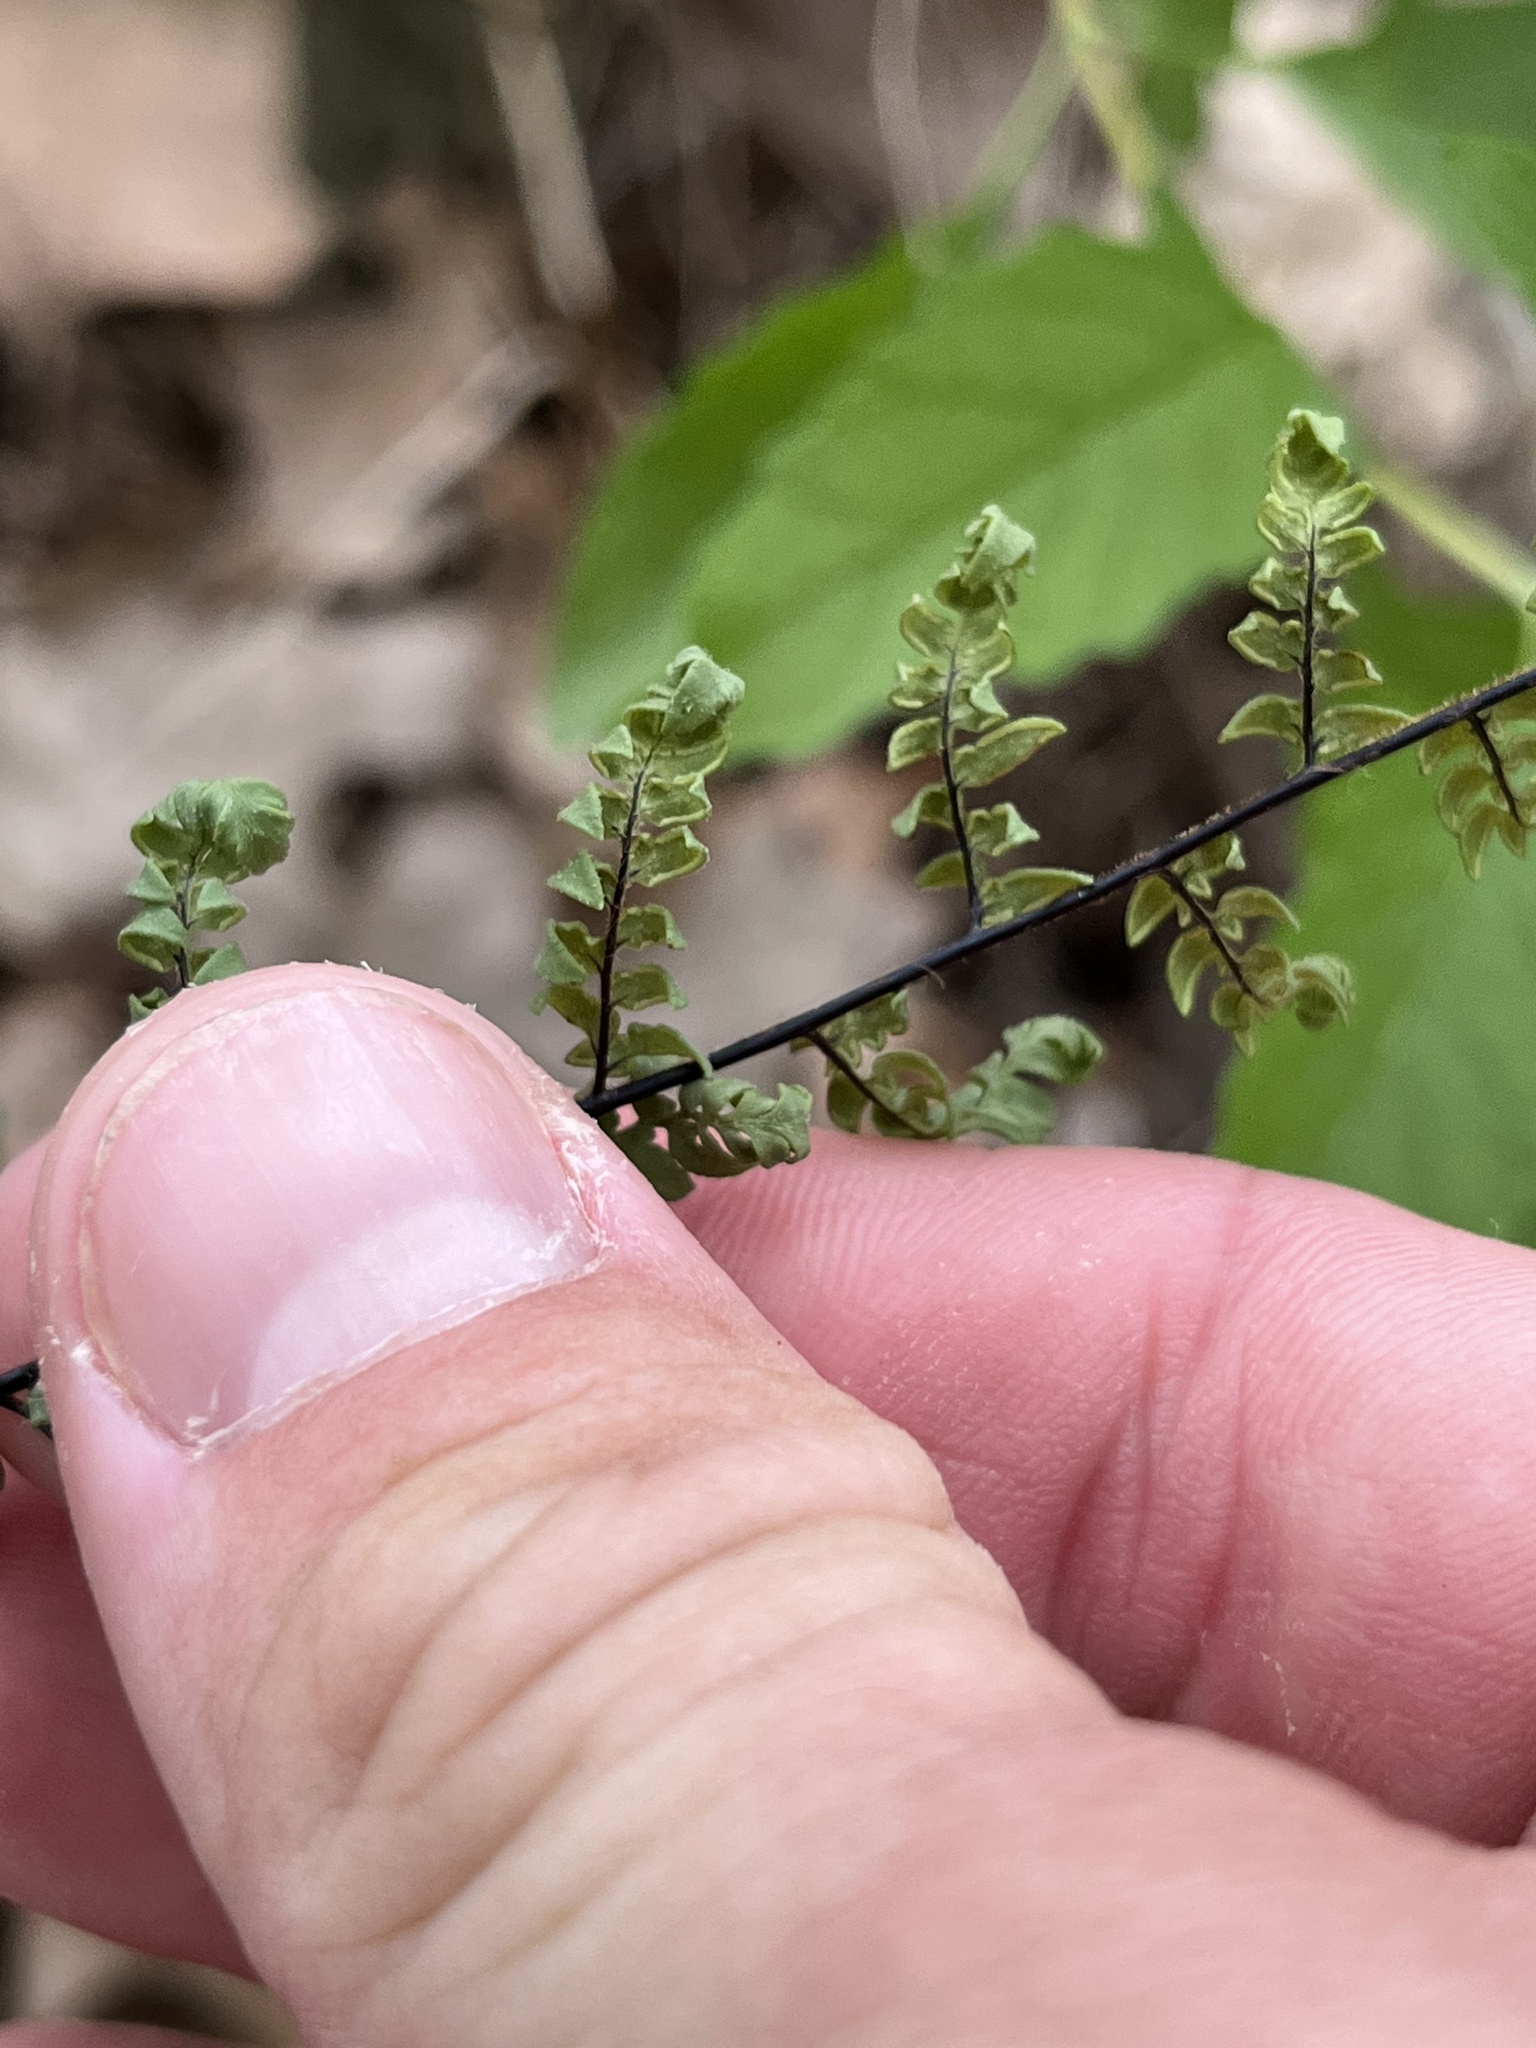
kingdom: Plantae
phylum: Tracheophyta
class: Polypodiopsida
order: Polypodiales
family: Pteridaceae
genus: Myriopteris
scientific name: Myriopteris alabamensis
